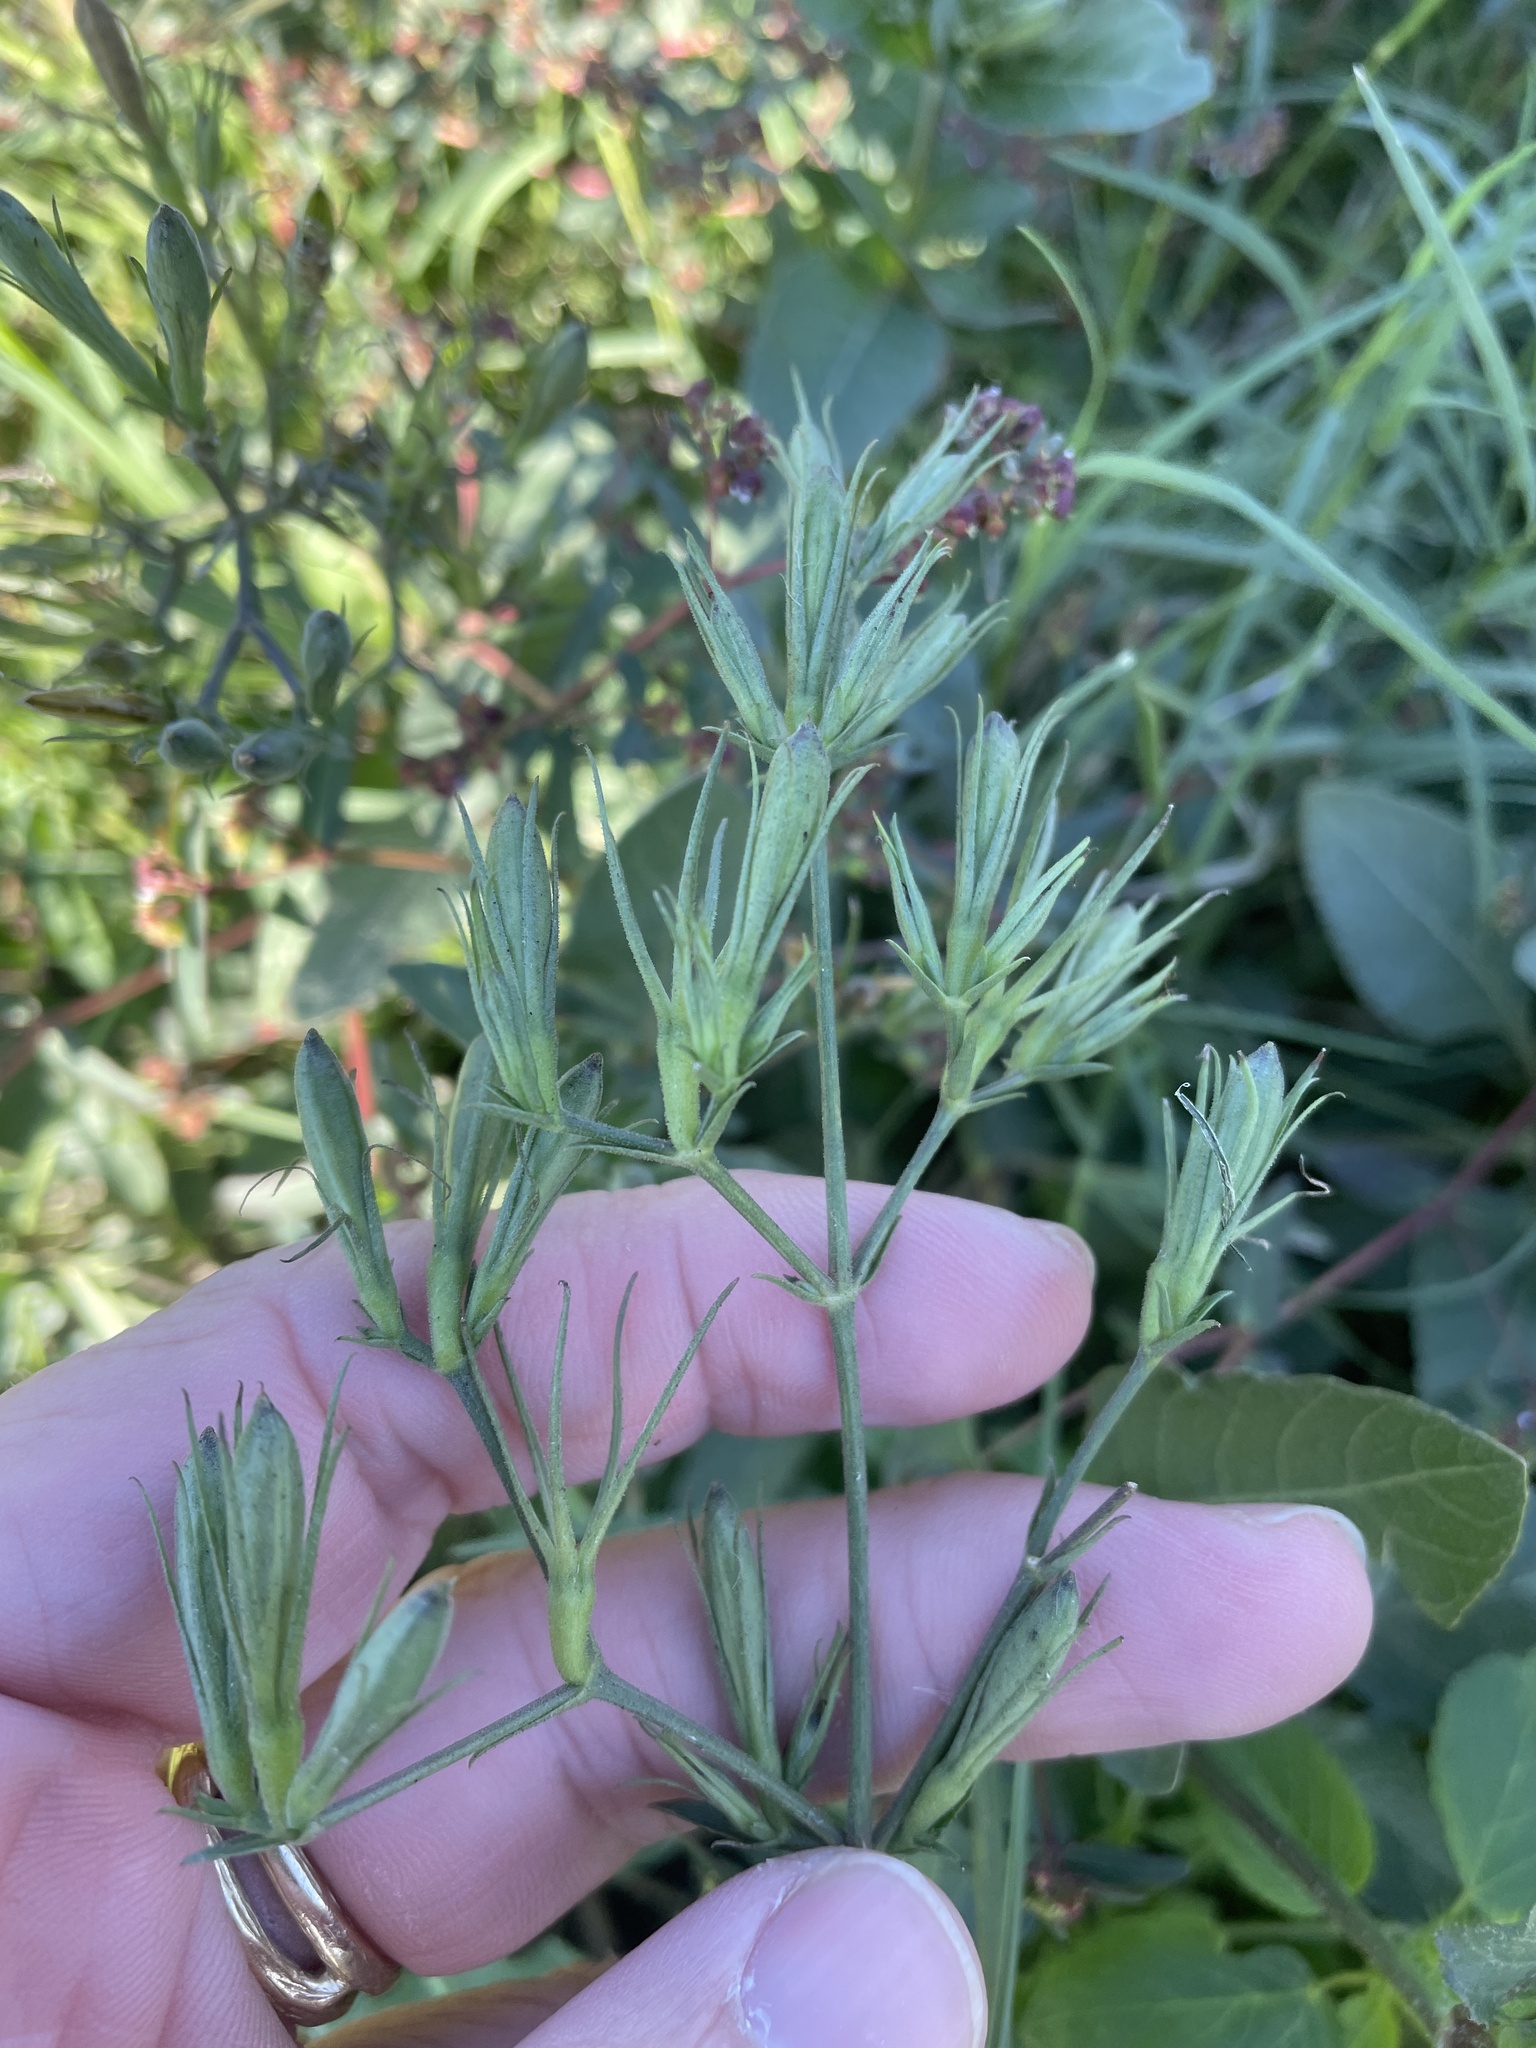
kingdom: Plantae
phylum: Tracheophyta
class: Magnoliopsida
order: Lamiales
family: Acanthaceae
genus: Ruellia
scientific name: Ruellia ciliatiflora
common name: Hairyflower wild petunia
